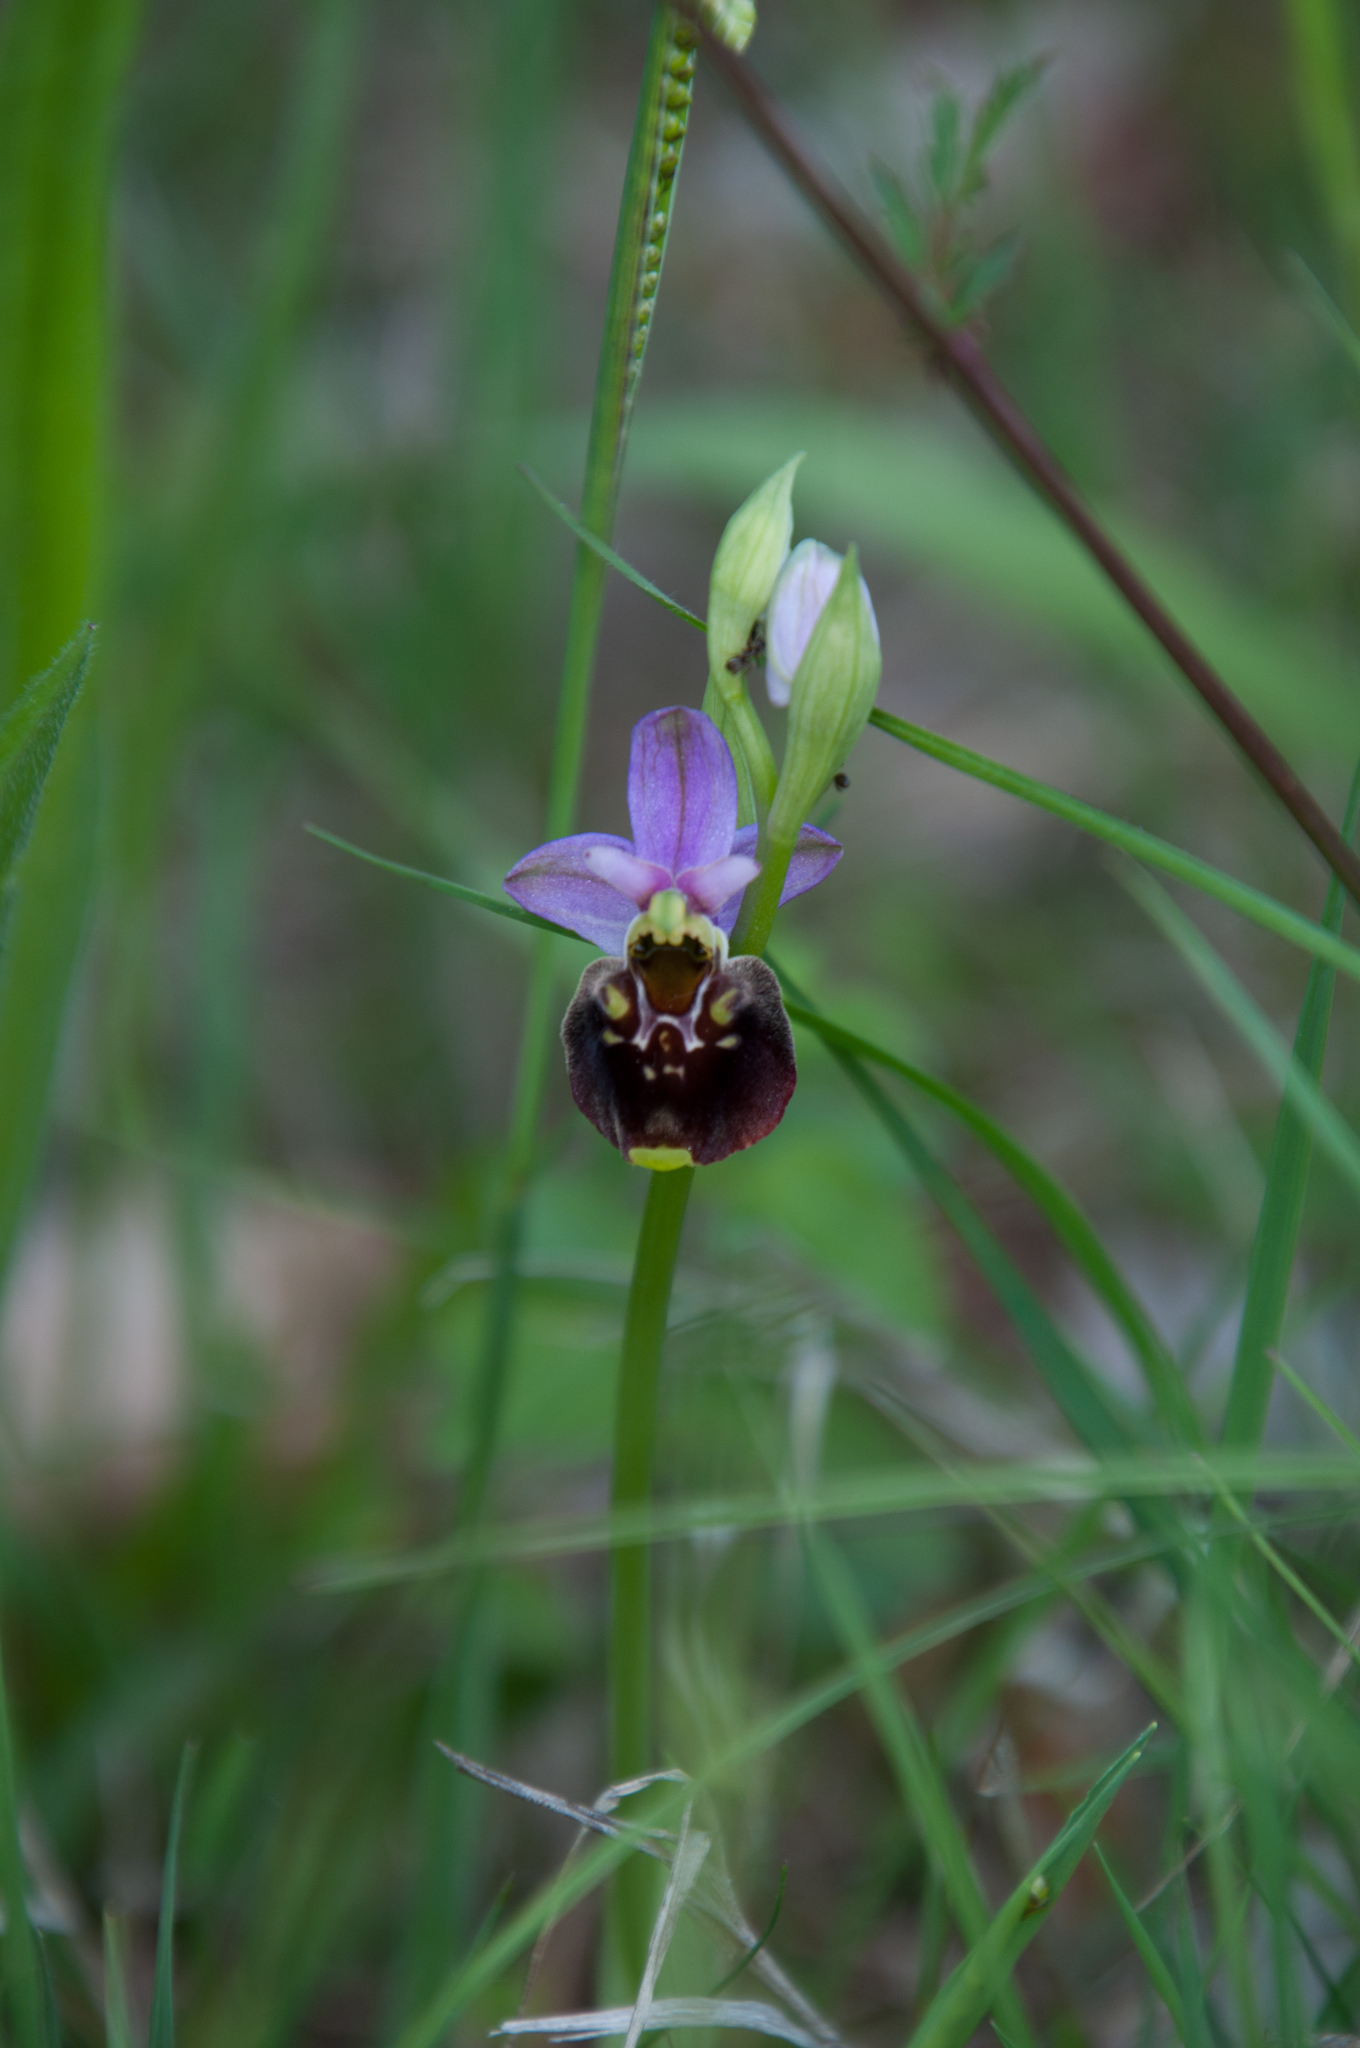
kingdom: Plantae
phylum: Tracheophyta
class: Liliopsida
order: Asparagales
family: Orchidaceae
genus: Ophrys
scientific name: Ophrys holosericea
